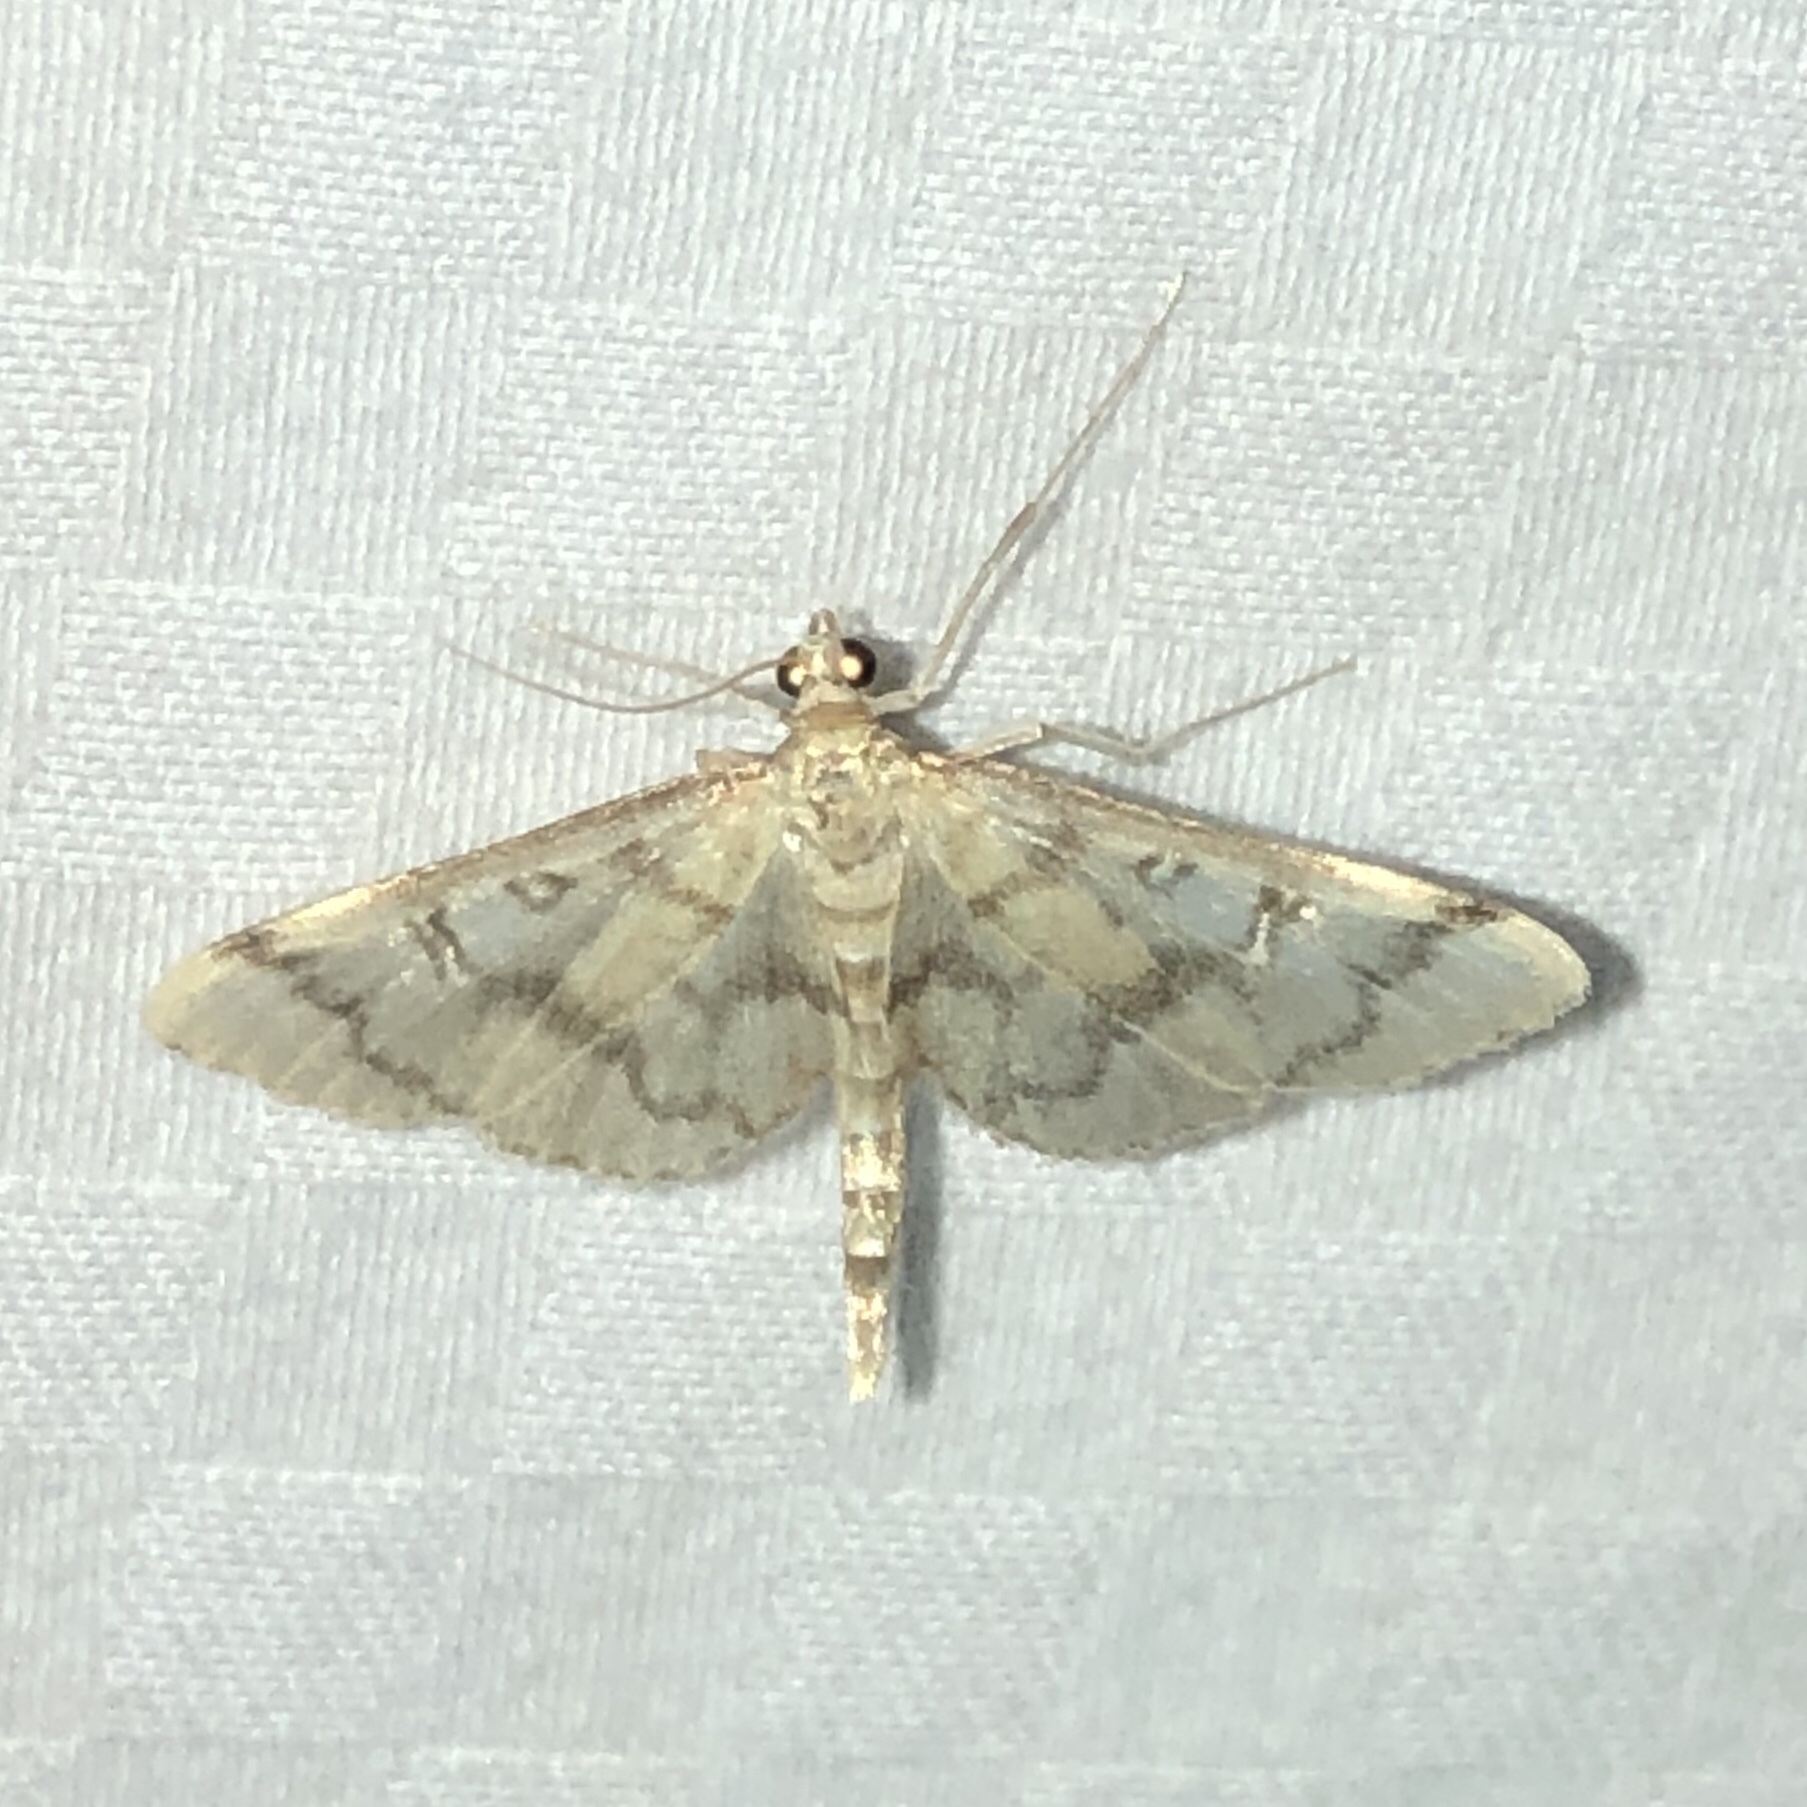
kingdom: Animalia
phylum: Arthropoda
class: Insecta
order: Lepidoptera
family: Crambidae
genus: Lamprosema
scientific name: Lamprosema Blepharomastix ranalis
